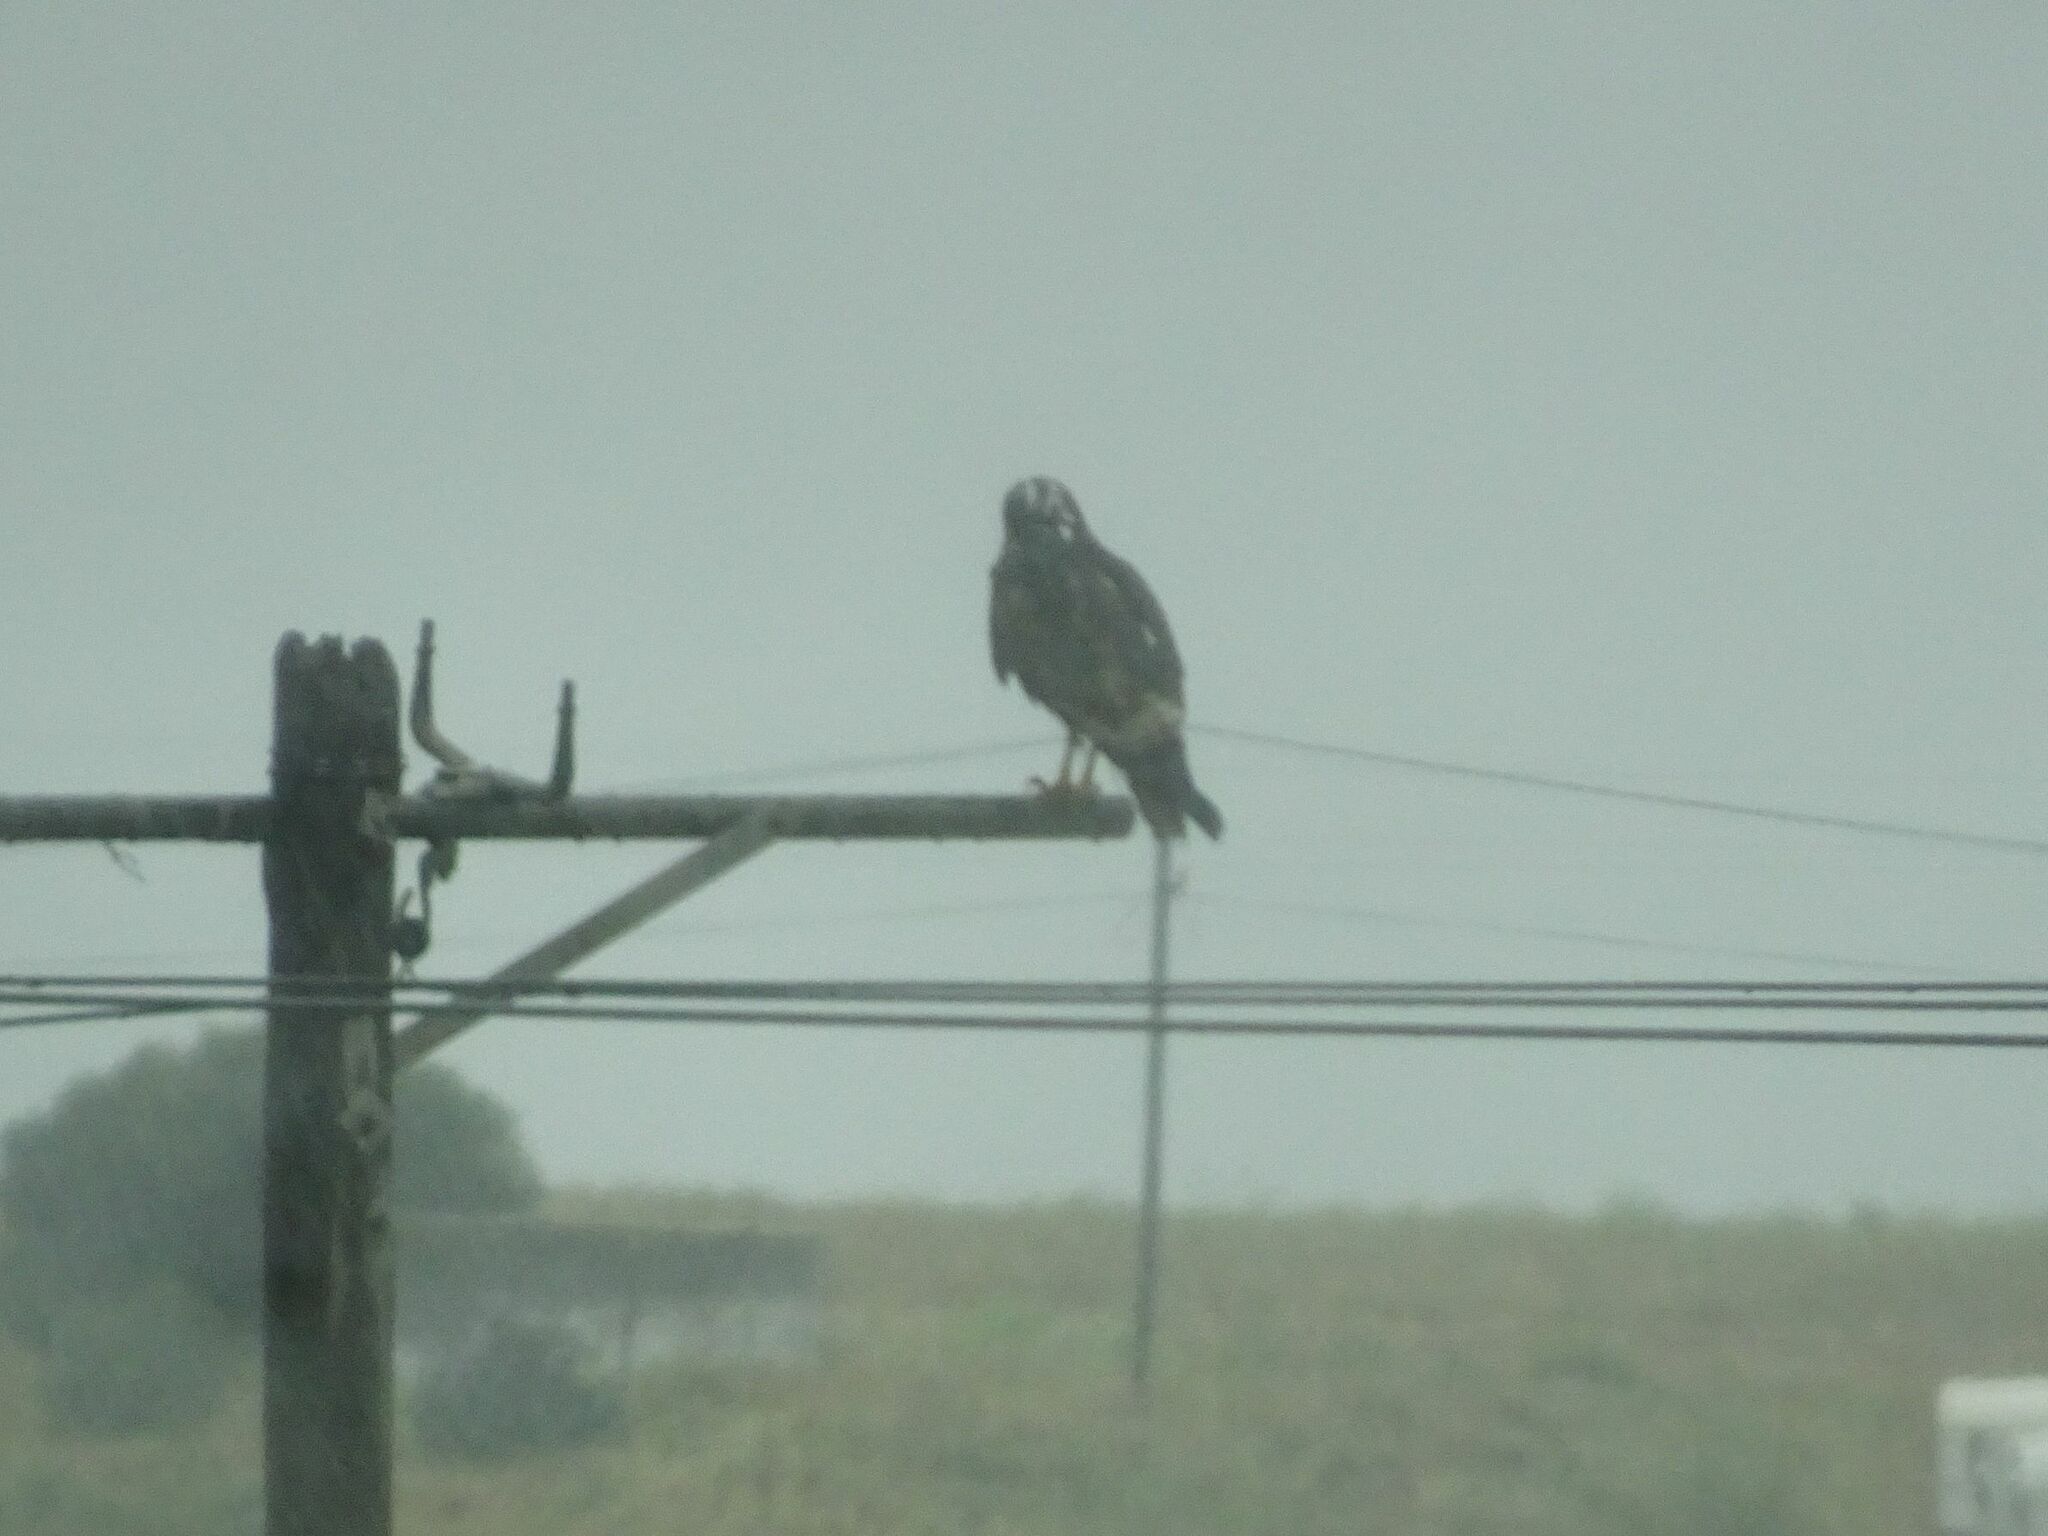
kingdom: Animalia
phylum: Chordata
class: Aves
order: Accipitriformes
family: Accipitridae
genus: Buteo
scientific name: Buteo rufofuscus
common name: Jackal buzzard
